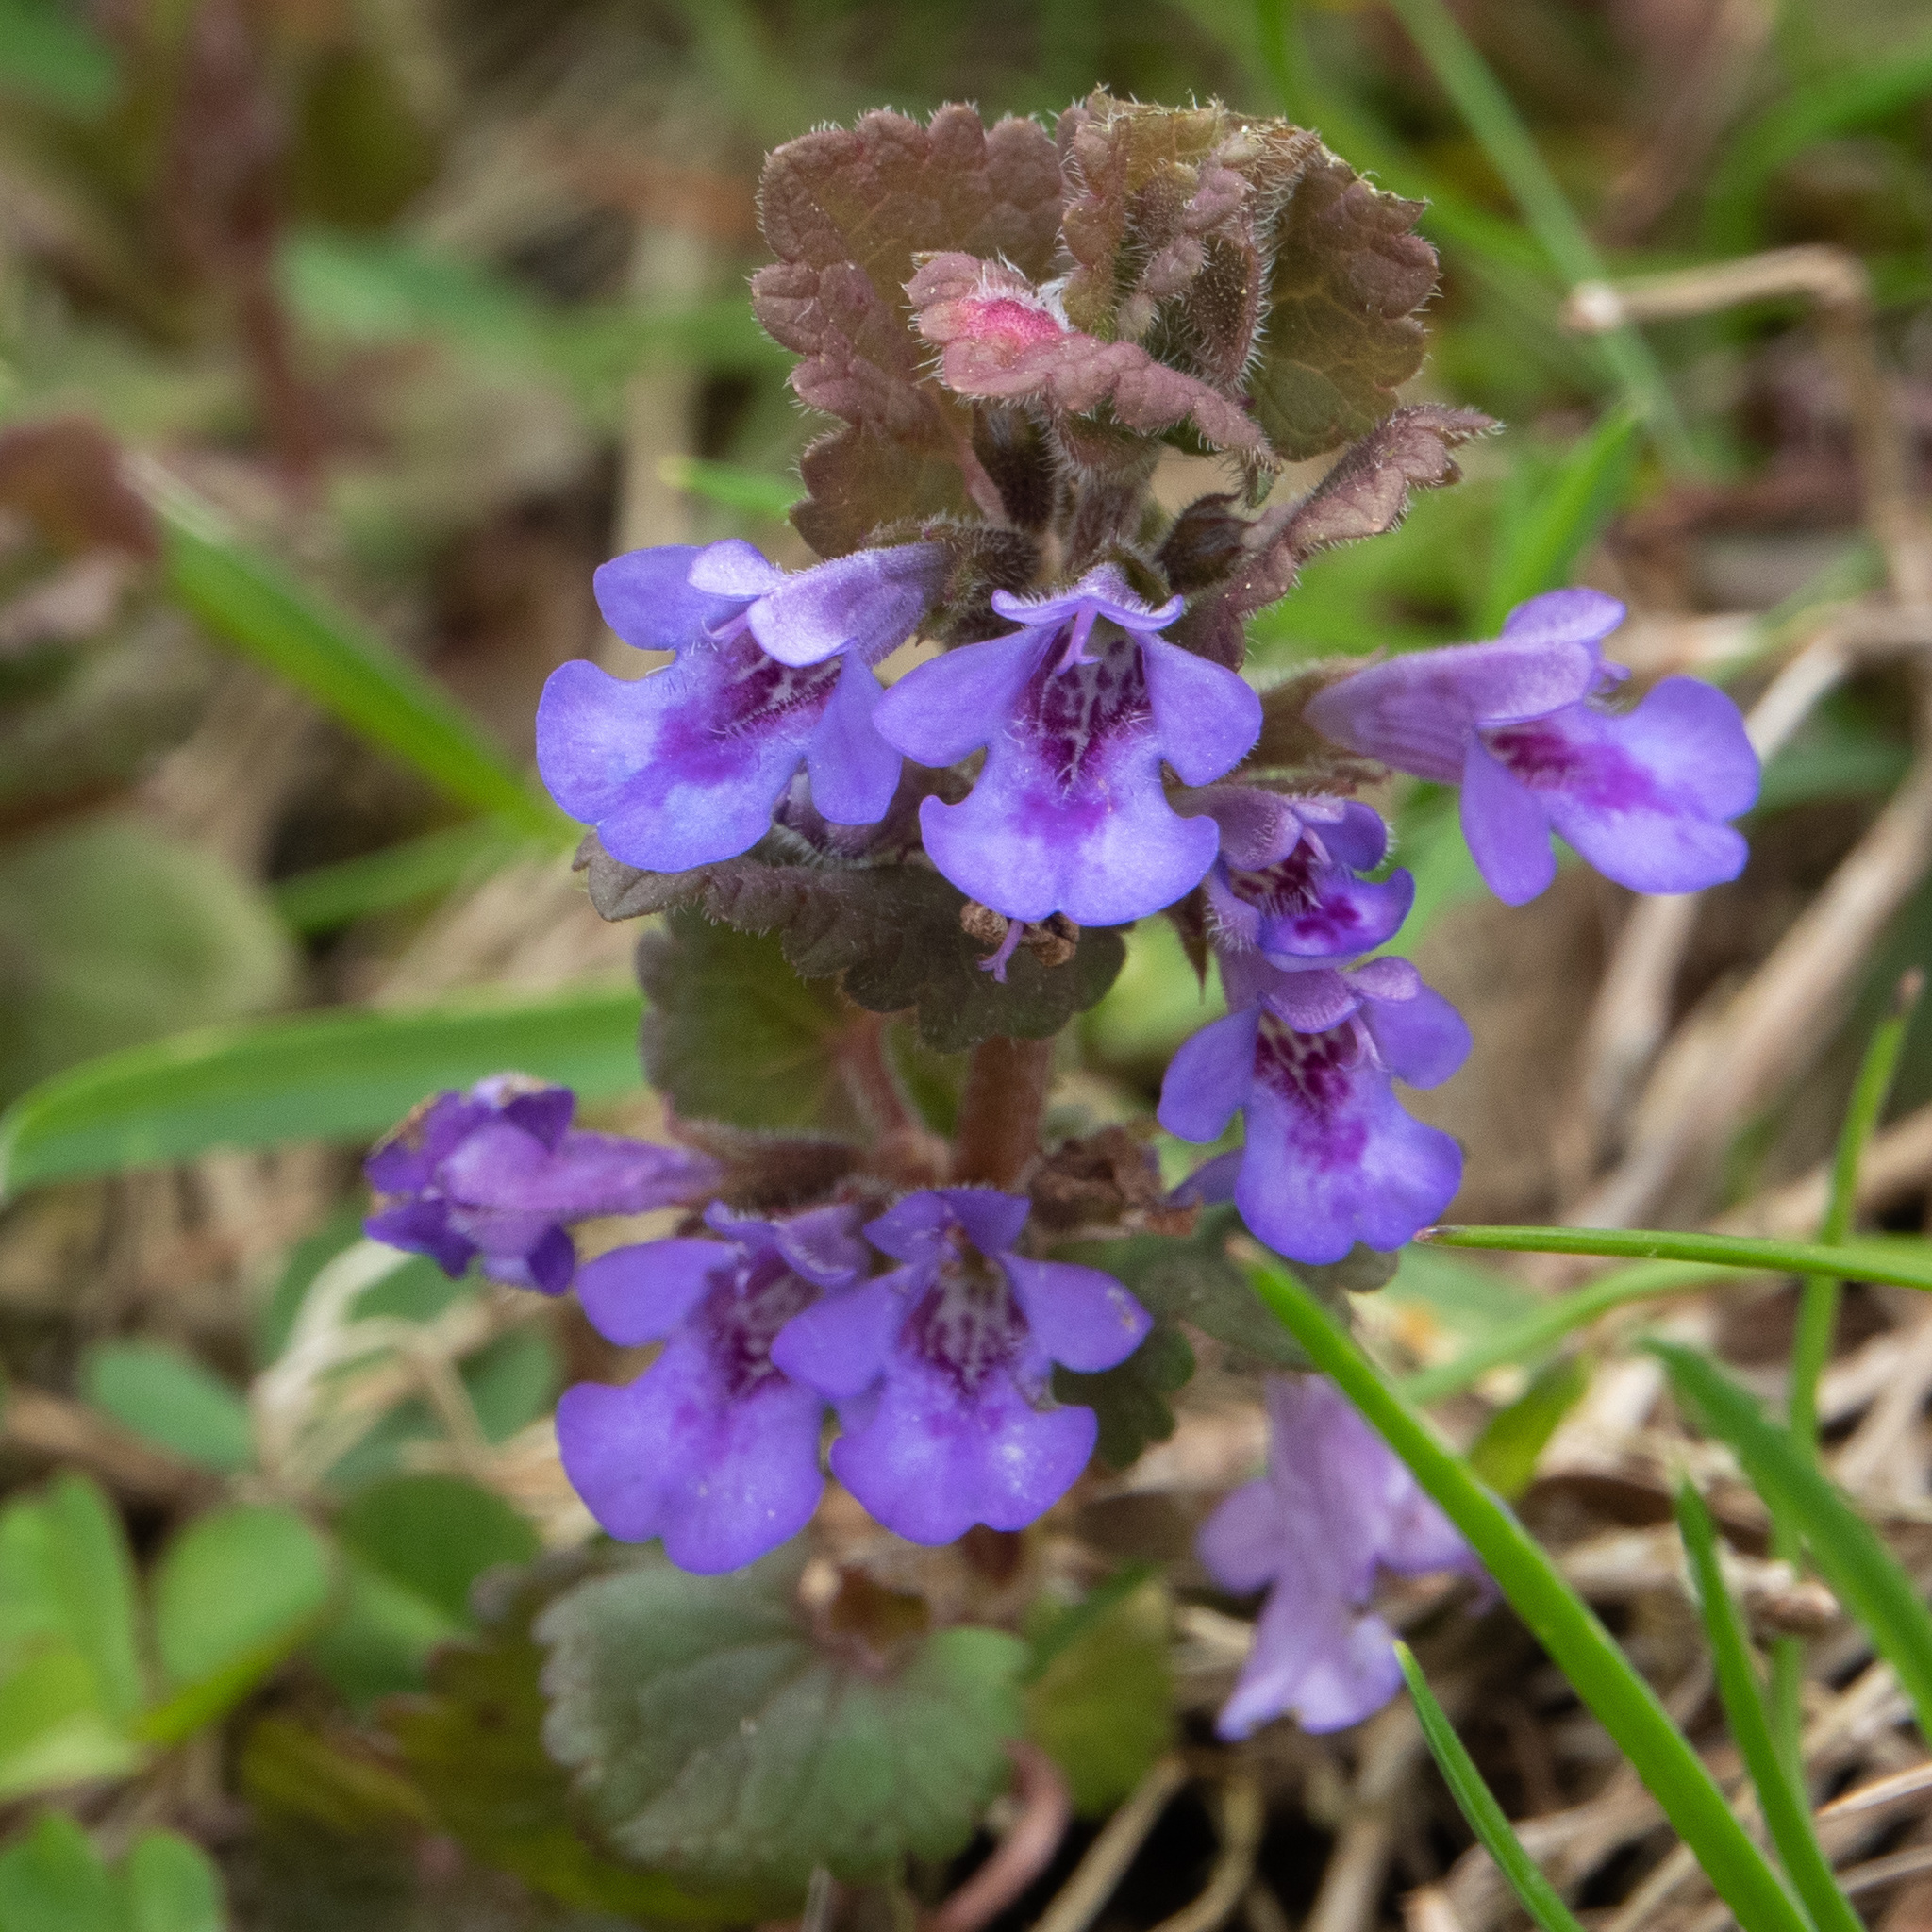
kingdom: Plantae
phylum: Tracheophyta
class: Magnoliopsida
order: Lamiales
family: Lamiaceae
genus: Glechoma
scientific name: Glechoma hederacea
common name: Ground ivy
